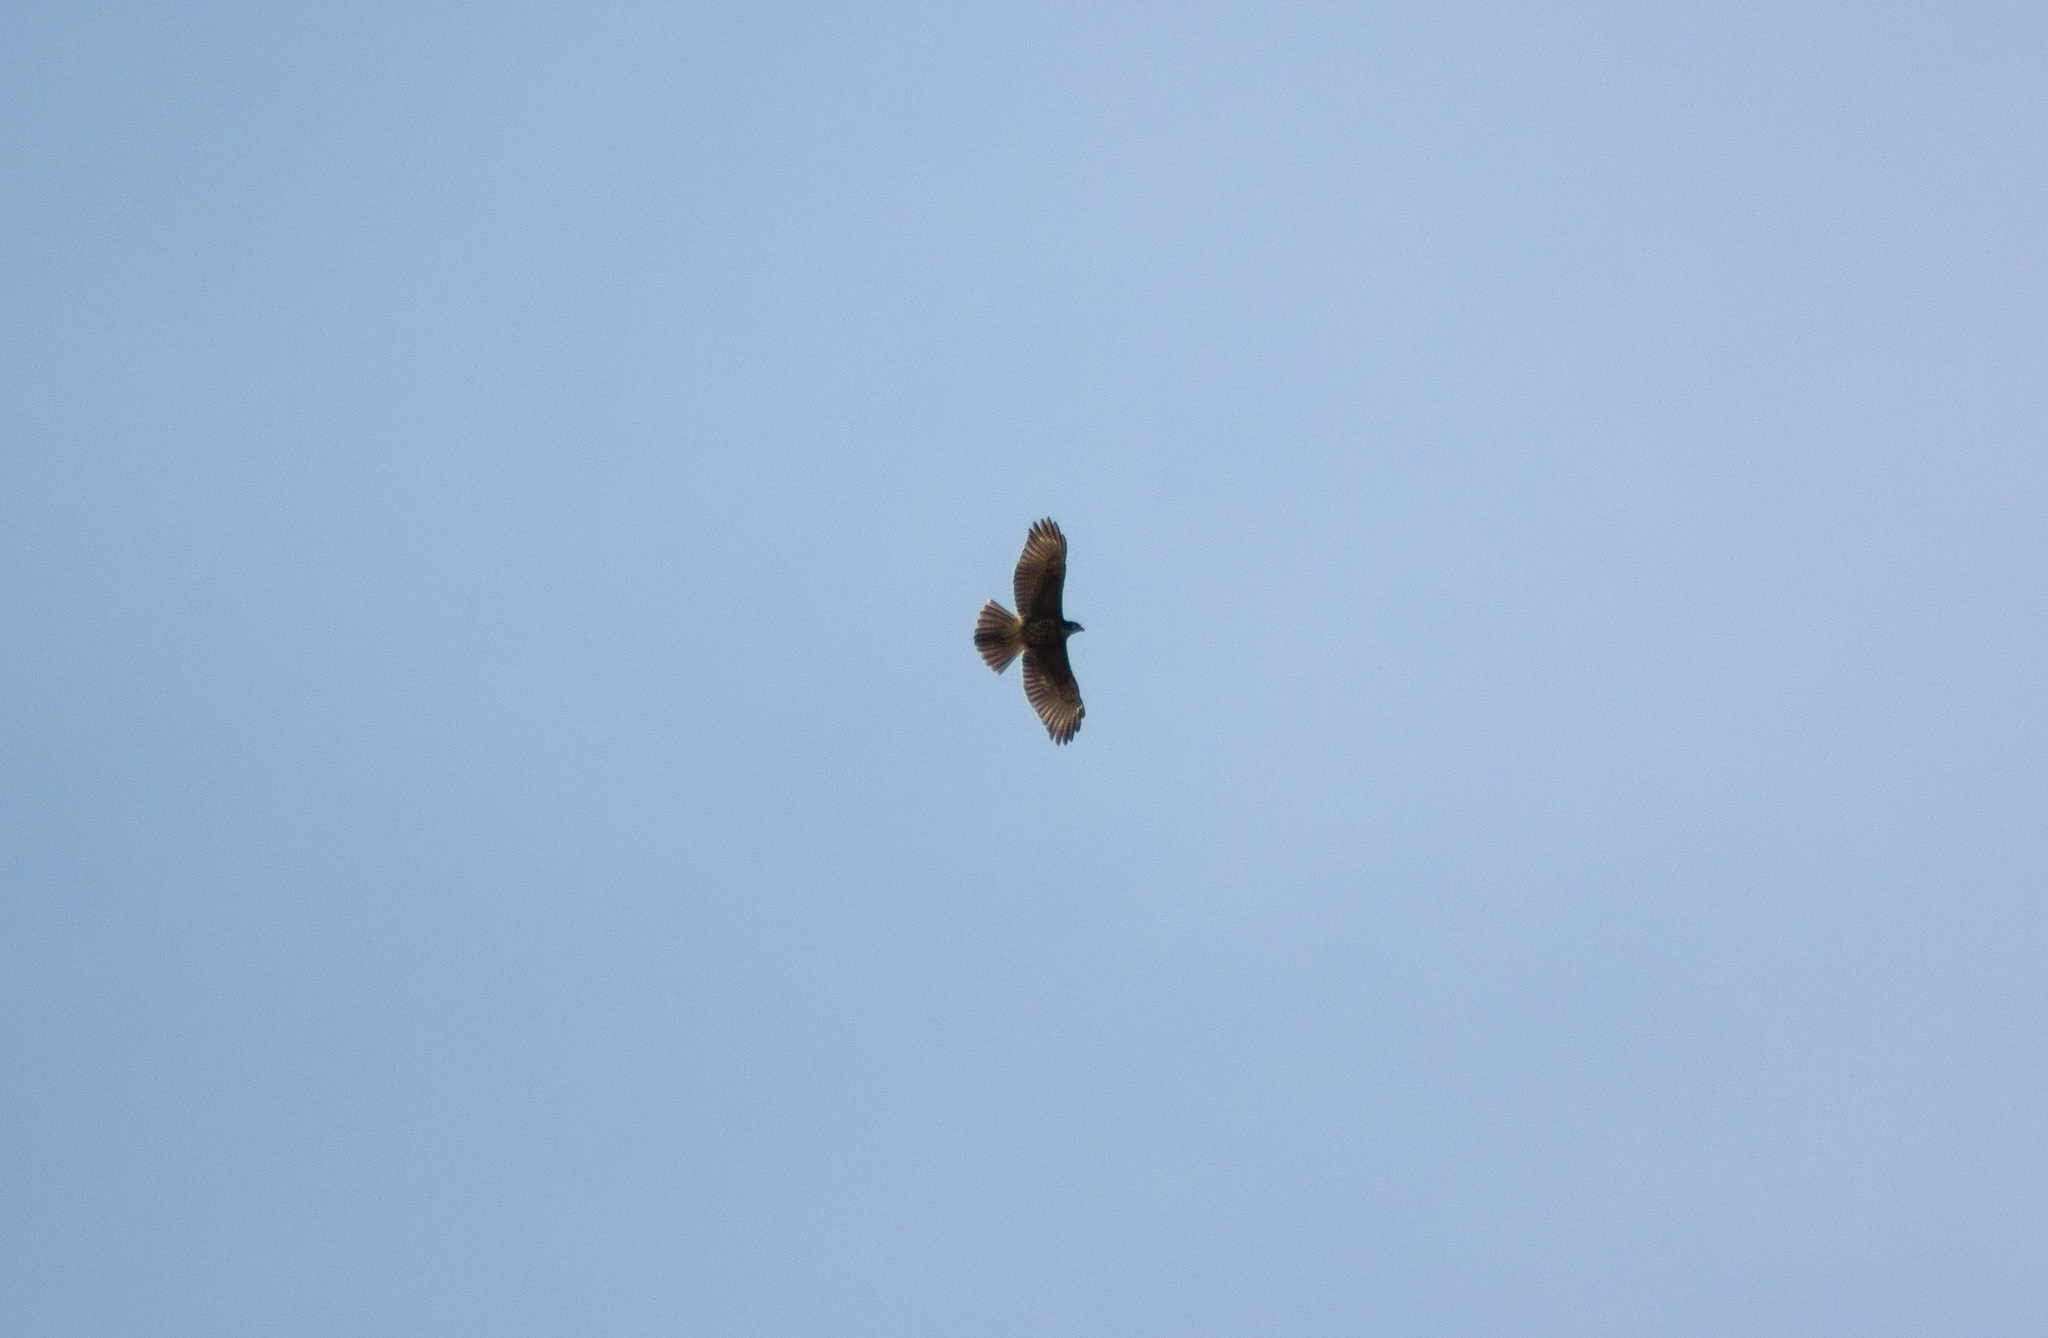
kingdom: Animalia
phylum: Chordata
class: Aves
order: Accipitriformes
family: Accipitridae
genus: Parabuteo
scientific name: Parabuteo unicinctus
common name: Harris's hawk
